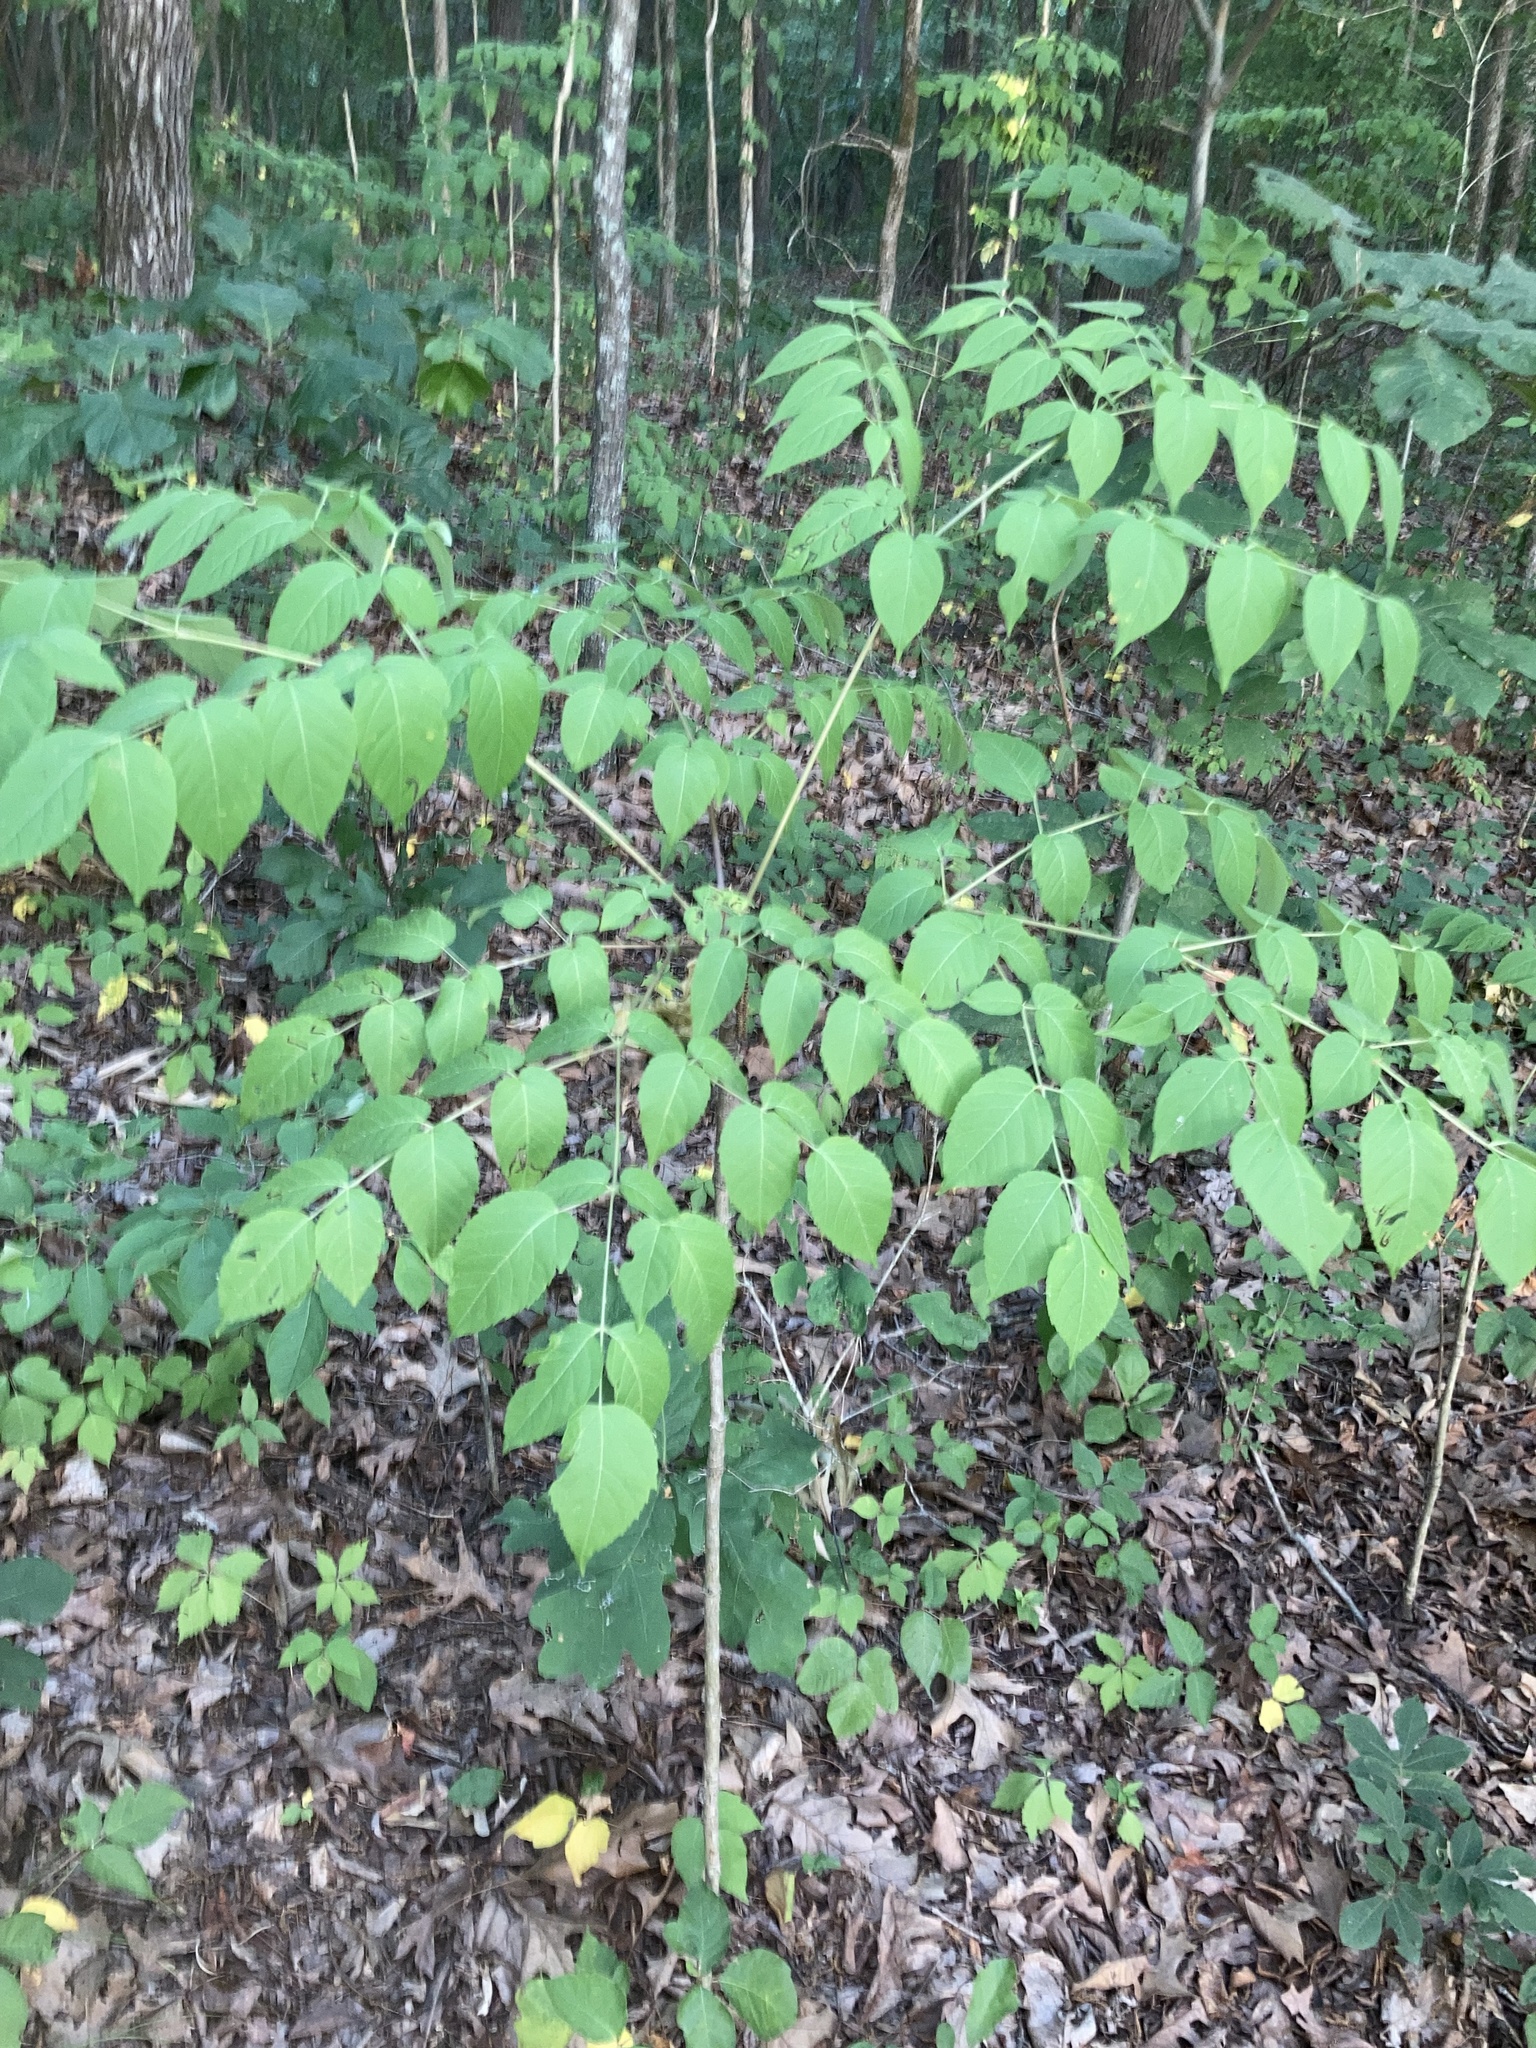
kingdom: Plantae
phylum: Tracheophyta
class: Magnoliopsida
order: Apiales
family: Araliaceae
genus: Aralia
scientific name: Aralia spinosa
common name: Hercules'-club
